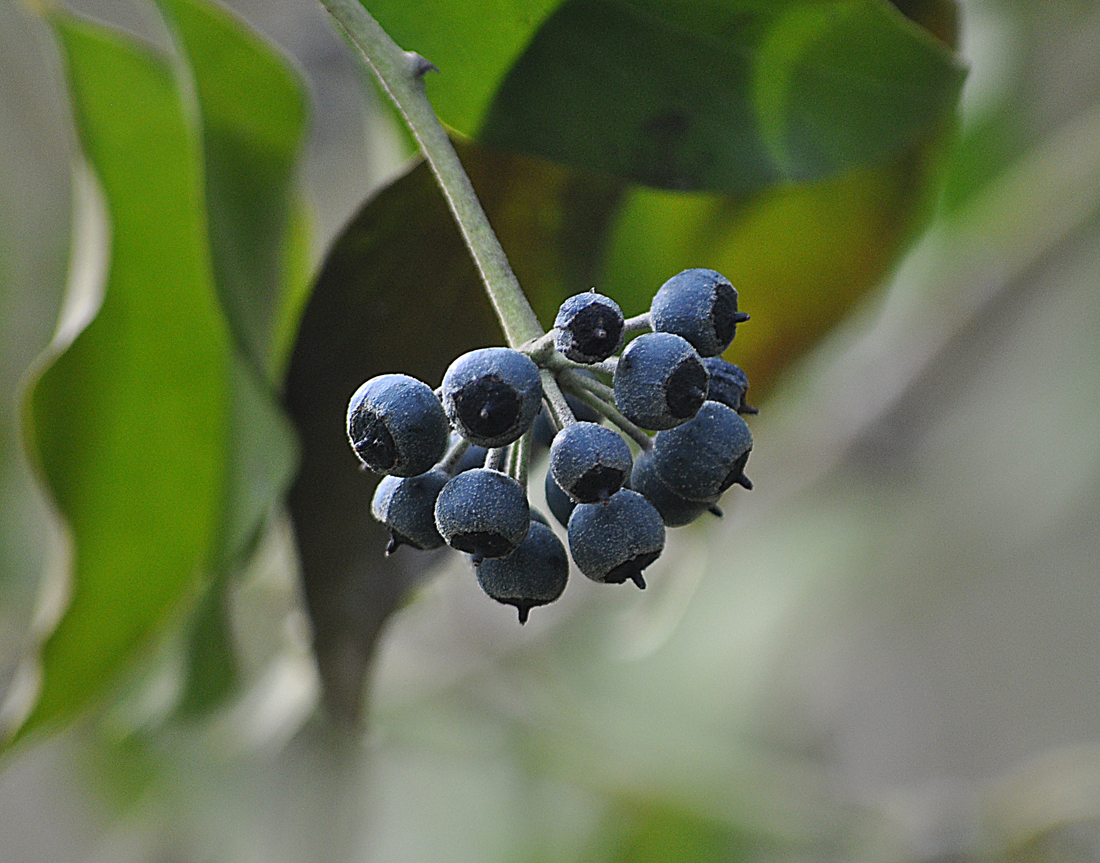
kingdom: Plantae
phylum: Tracheophyta
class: Magnoliopsida
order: Apiales
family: Araliaceae
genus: Hedera
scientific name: Hedera helix
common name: Ivy
